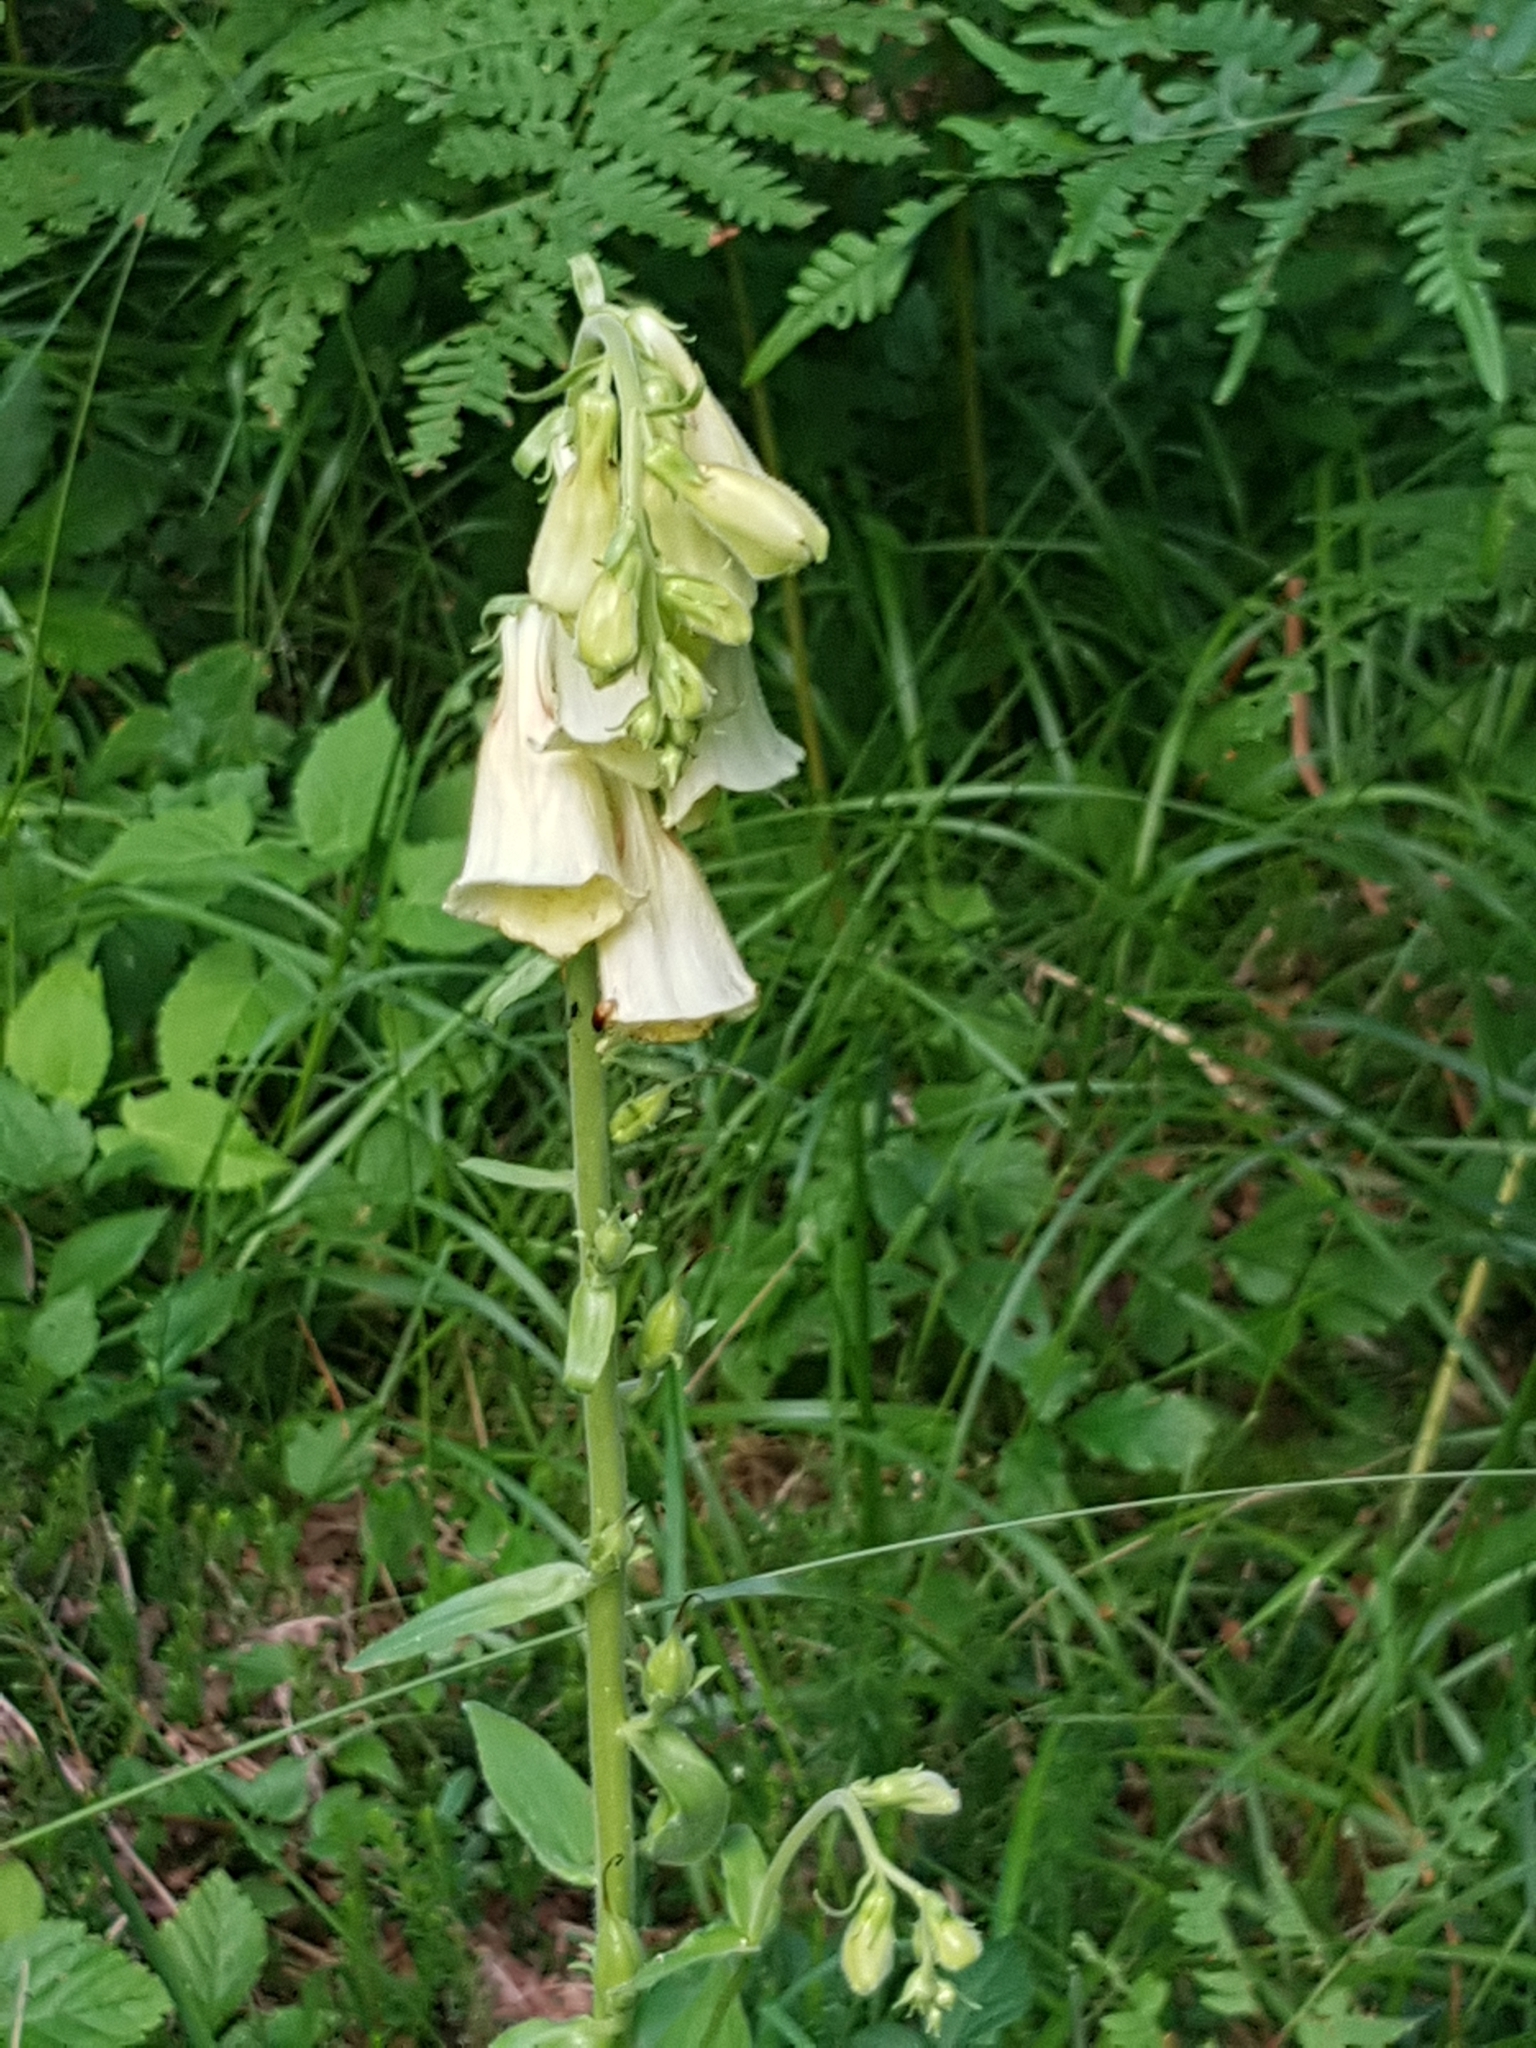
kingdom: Plantae
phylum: Tracheophyta
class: Magnoliopsida
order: Lamiales
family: Plantaginaceae
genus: Digitalis
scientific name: Digitalis grandiflora
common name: Yellow foxglove
